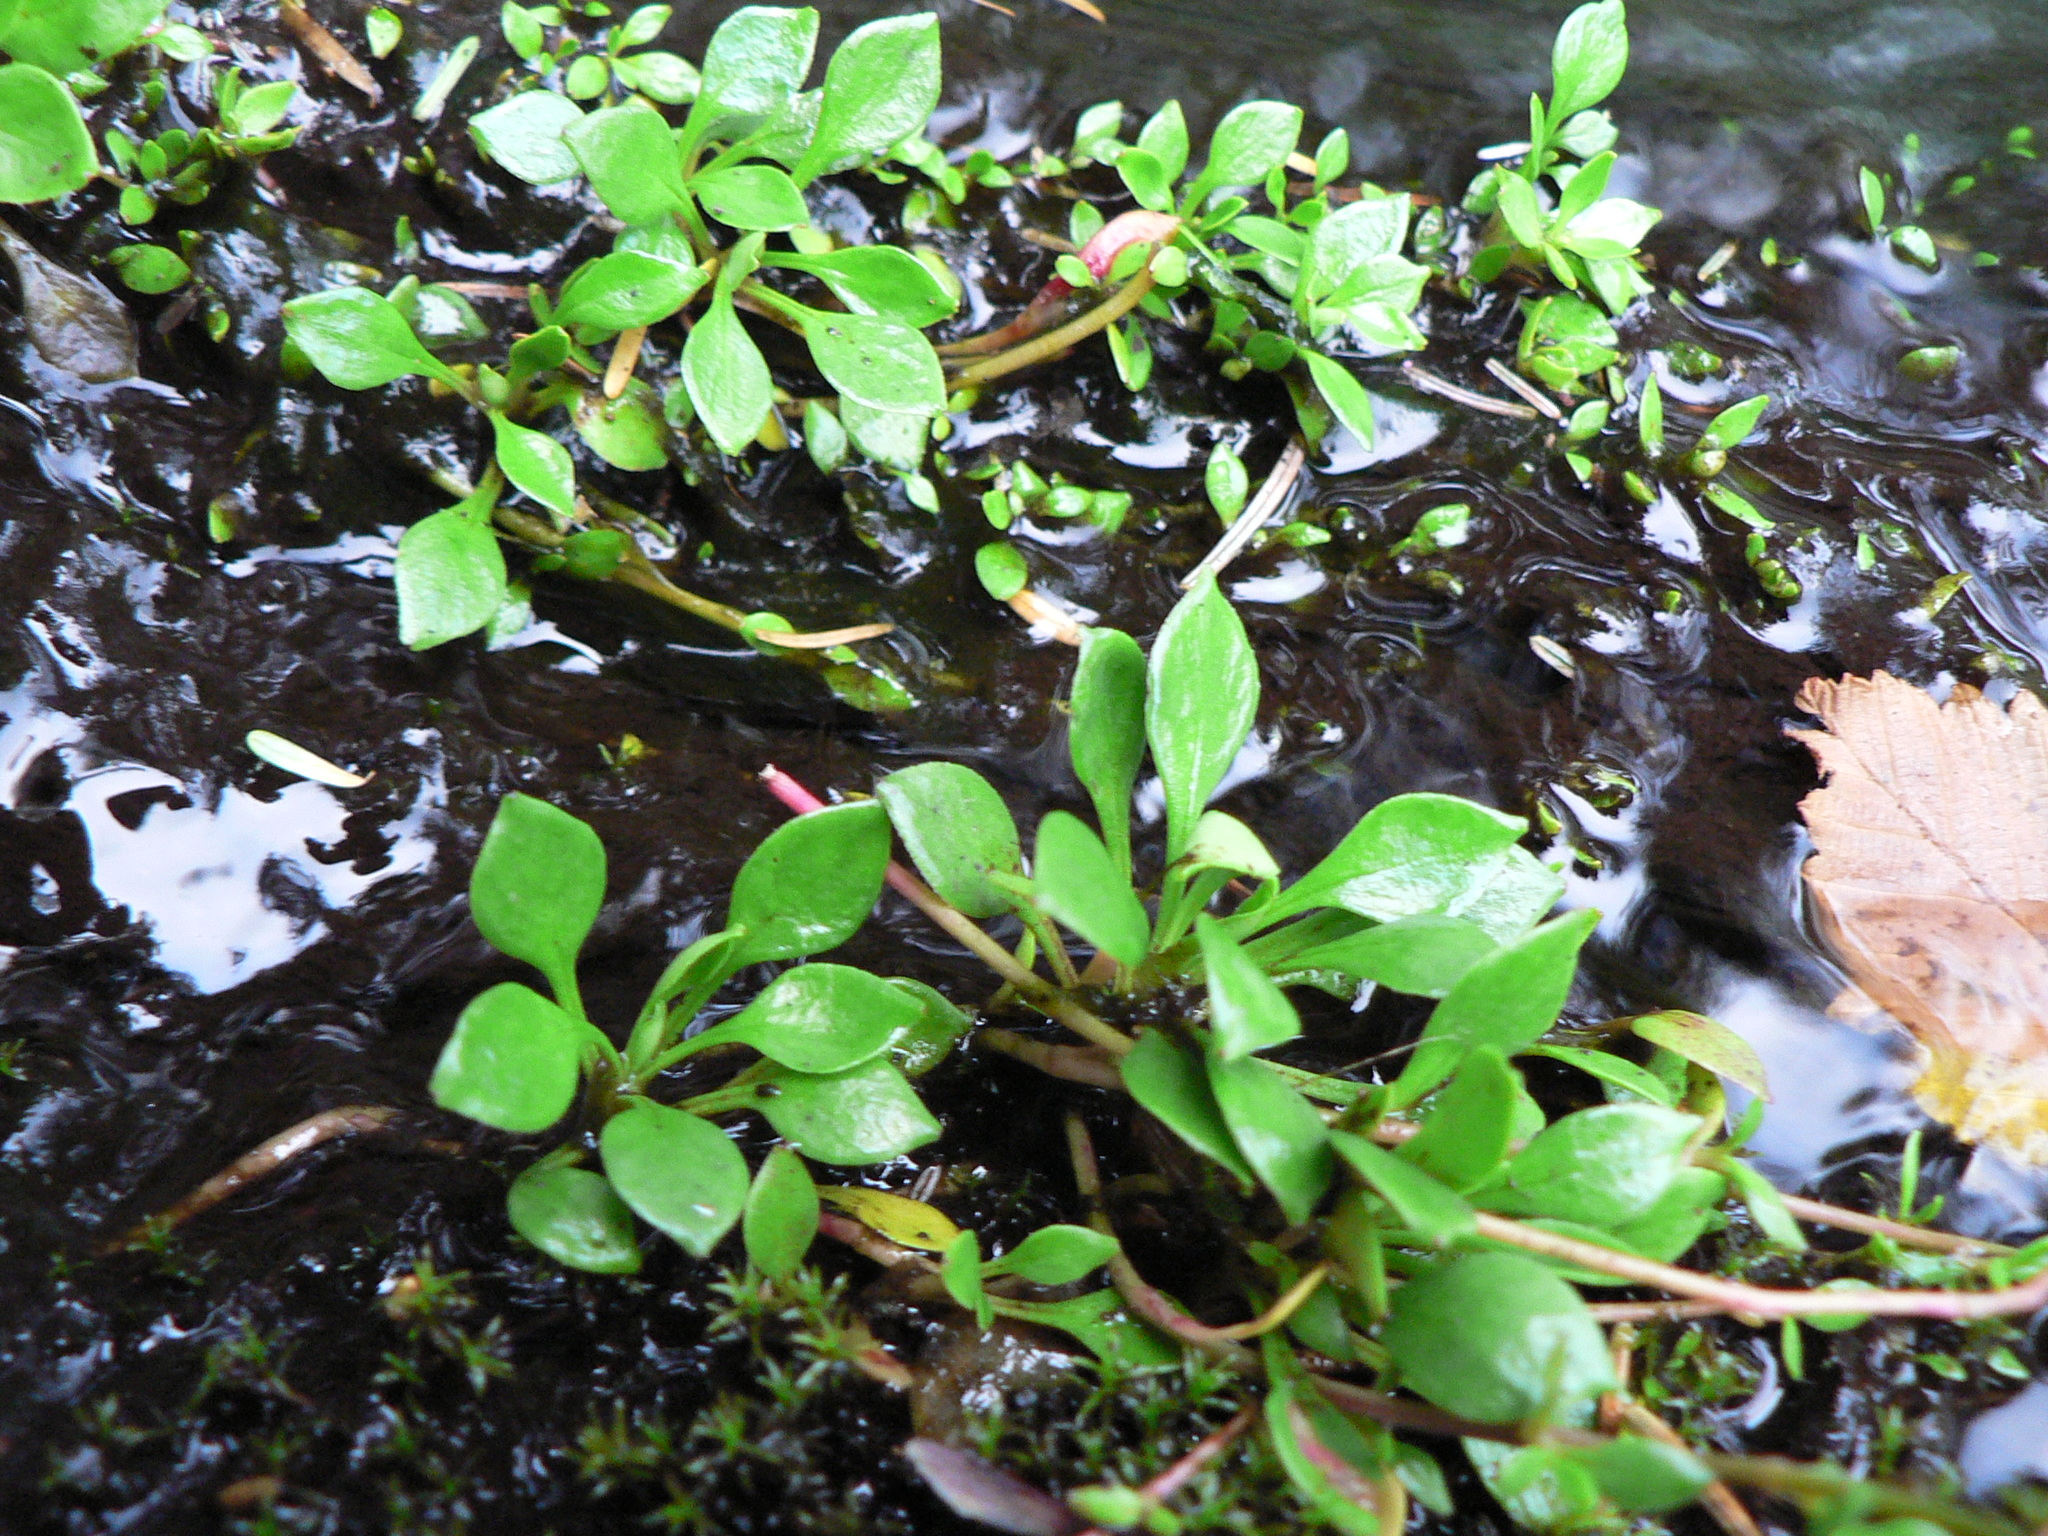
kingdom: Plantae
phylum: Tracheophyta
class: Magnoliopsida
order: Caryophyllales
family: Montiaceae
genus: Montia
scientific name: Montia parvifolia
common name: Small-leaved blinks
